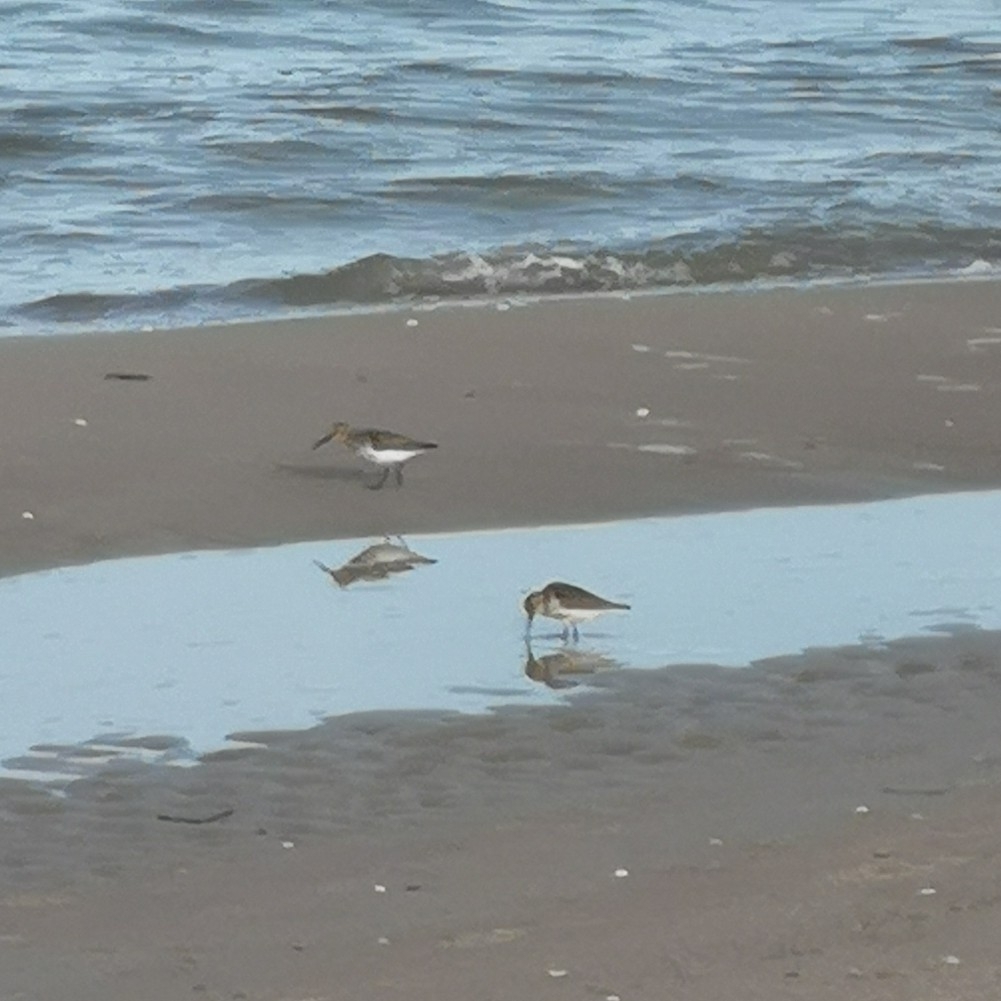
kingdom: Animalia
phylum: Chordata
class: Aves
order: Charadriiformes
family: Scolopacidae
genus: Calidris
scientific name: Calidris alpina
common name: Dunlin
